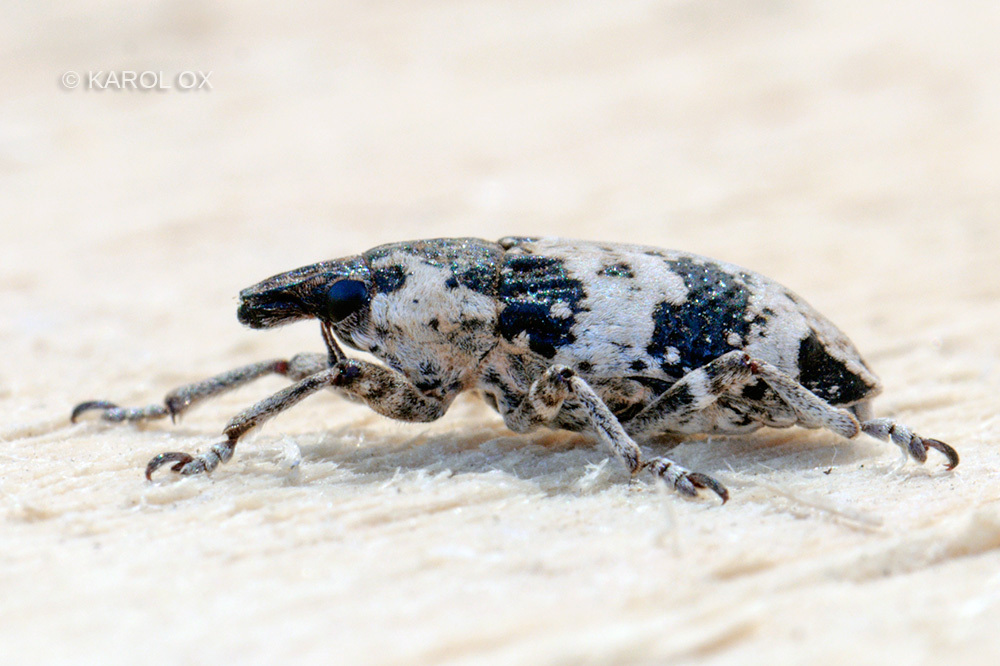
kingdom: Animalia
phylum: Arthropoda
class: Insecta
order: Coleoptera
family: Curculionidae
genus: Bothynoderes
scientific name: Bothynoderes affinis
